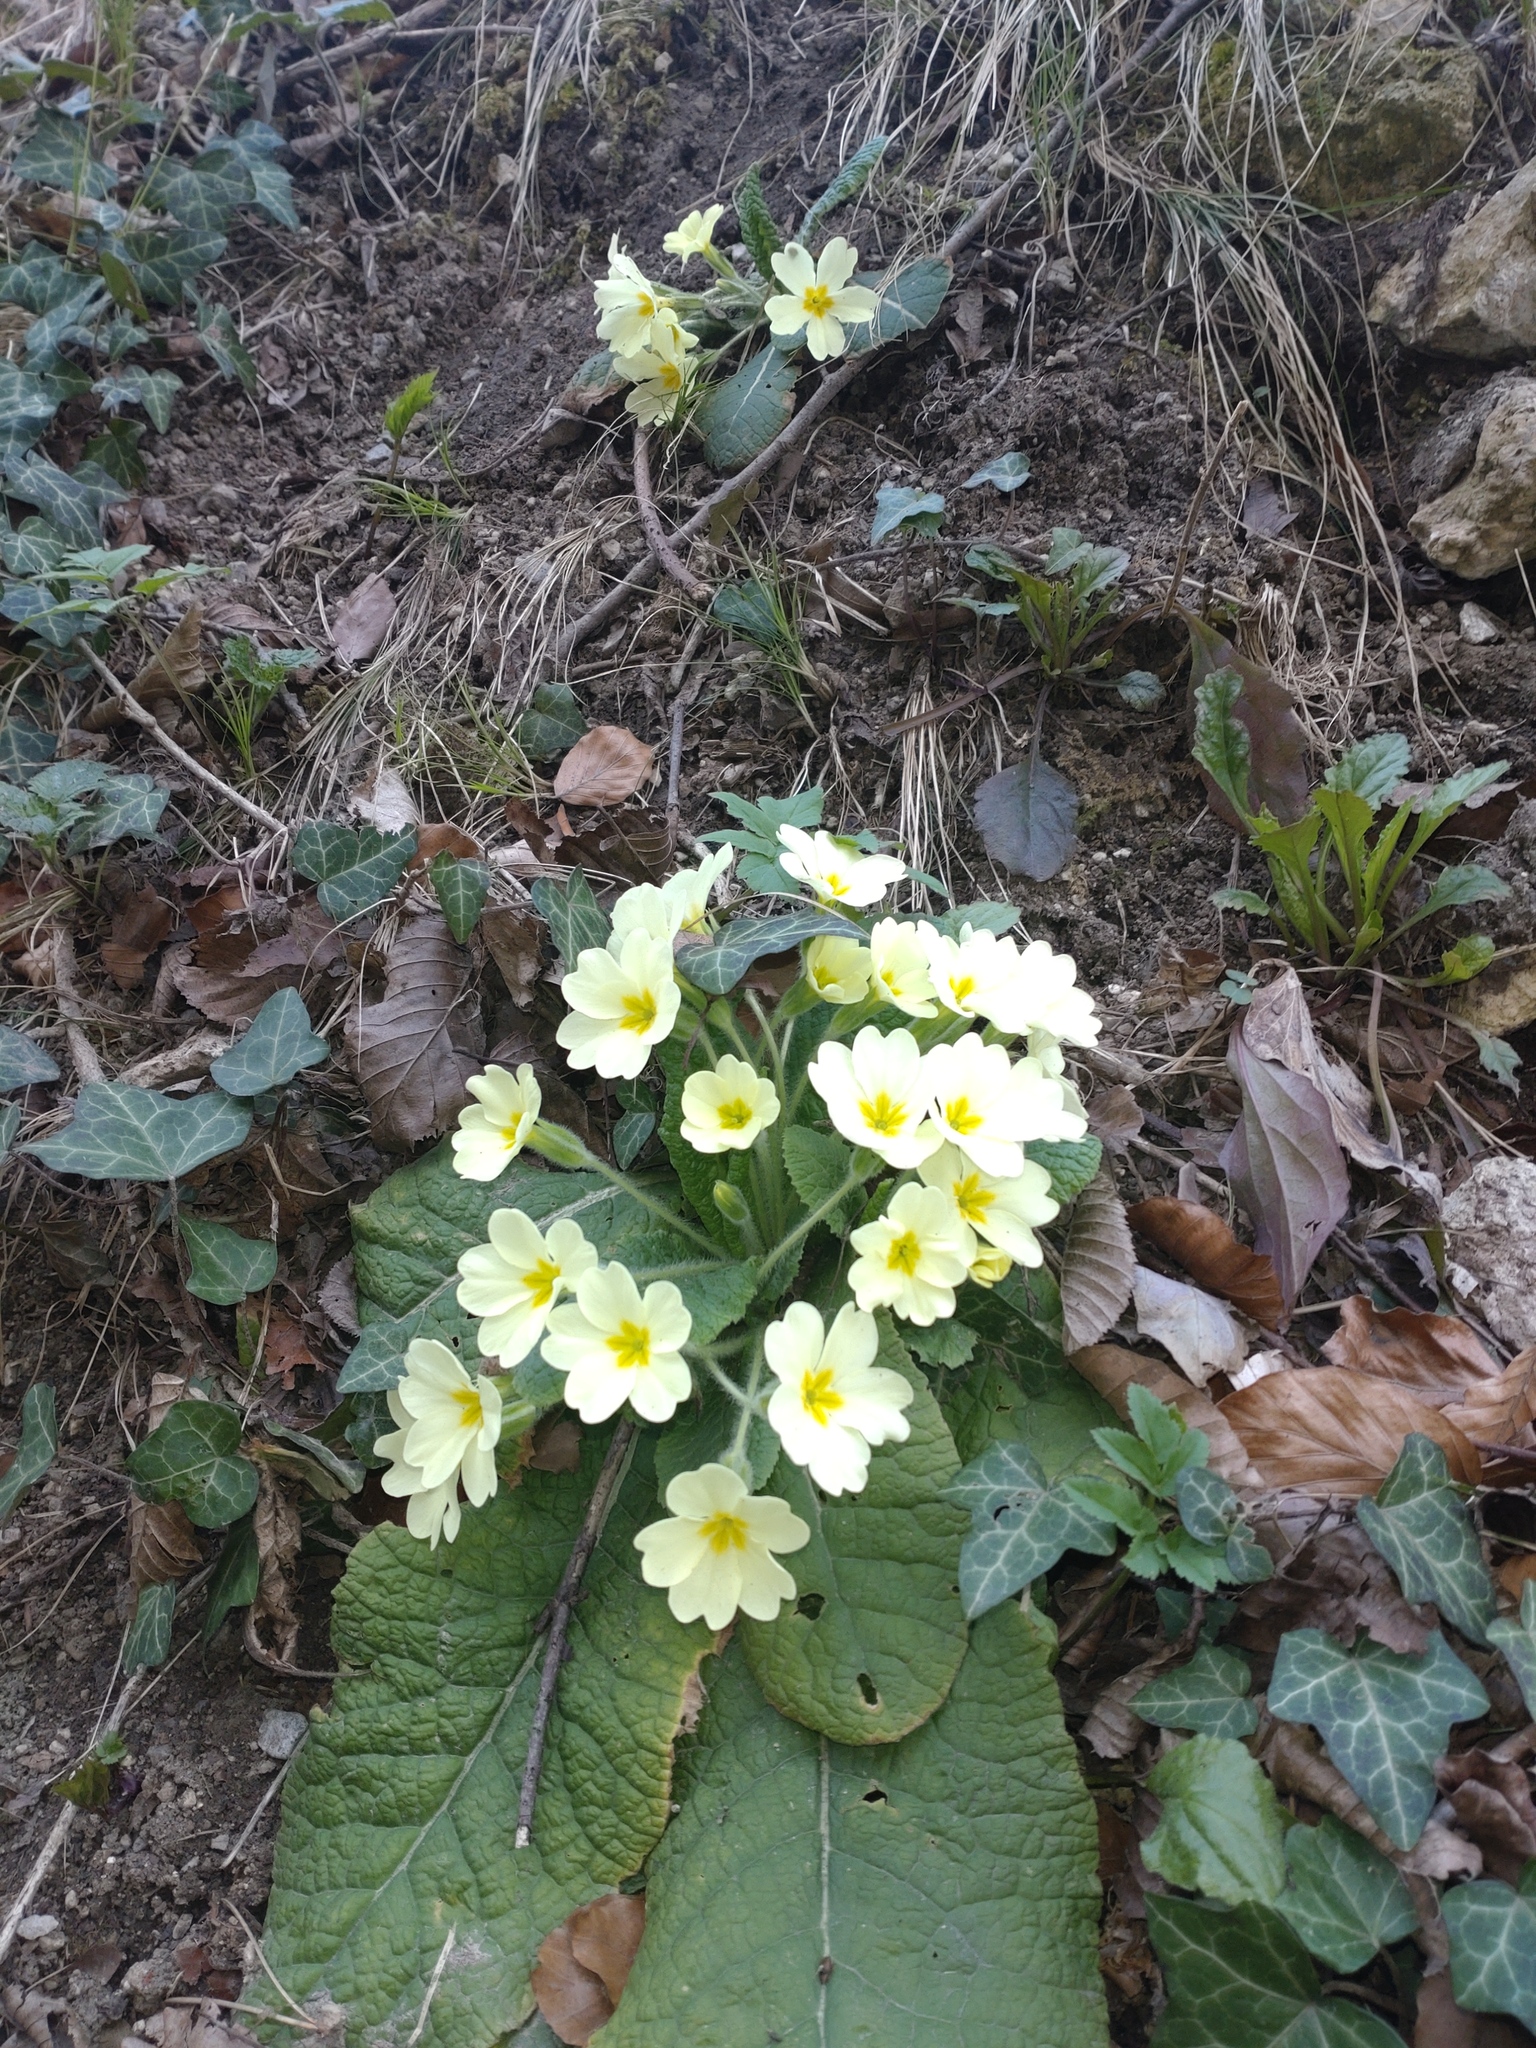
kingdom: Plantae
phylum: Tracheophyta
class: Magnoliopsida
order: Ericales
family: Primulaceae
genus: Primula
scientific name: Primula vulgaris
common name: Primrose
